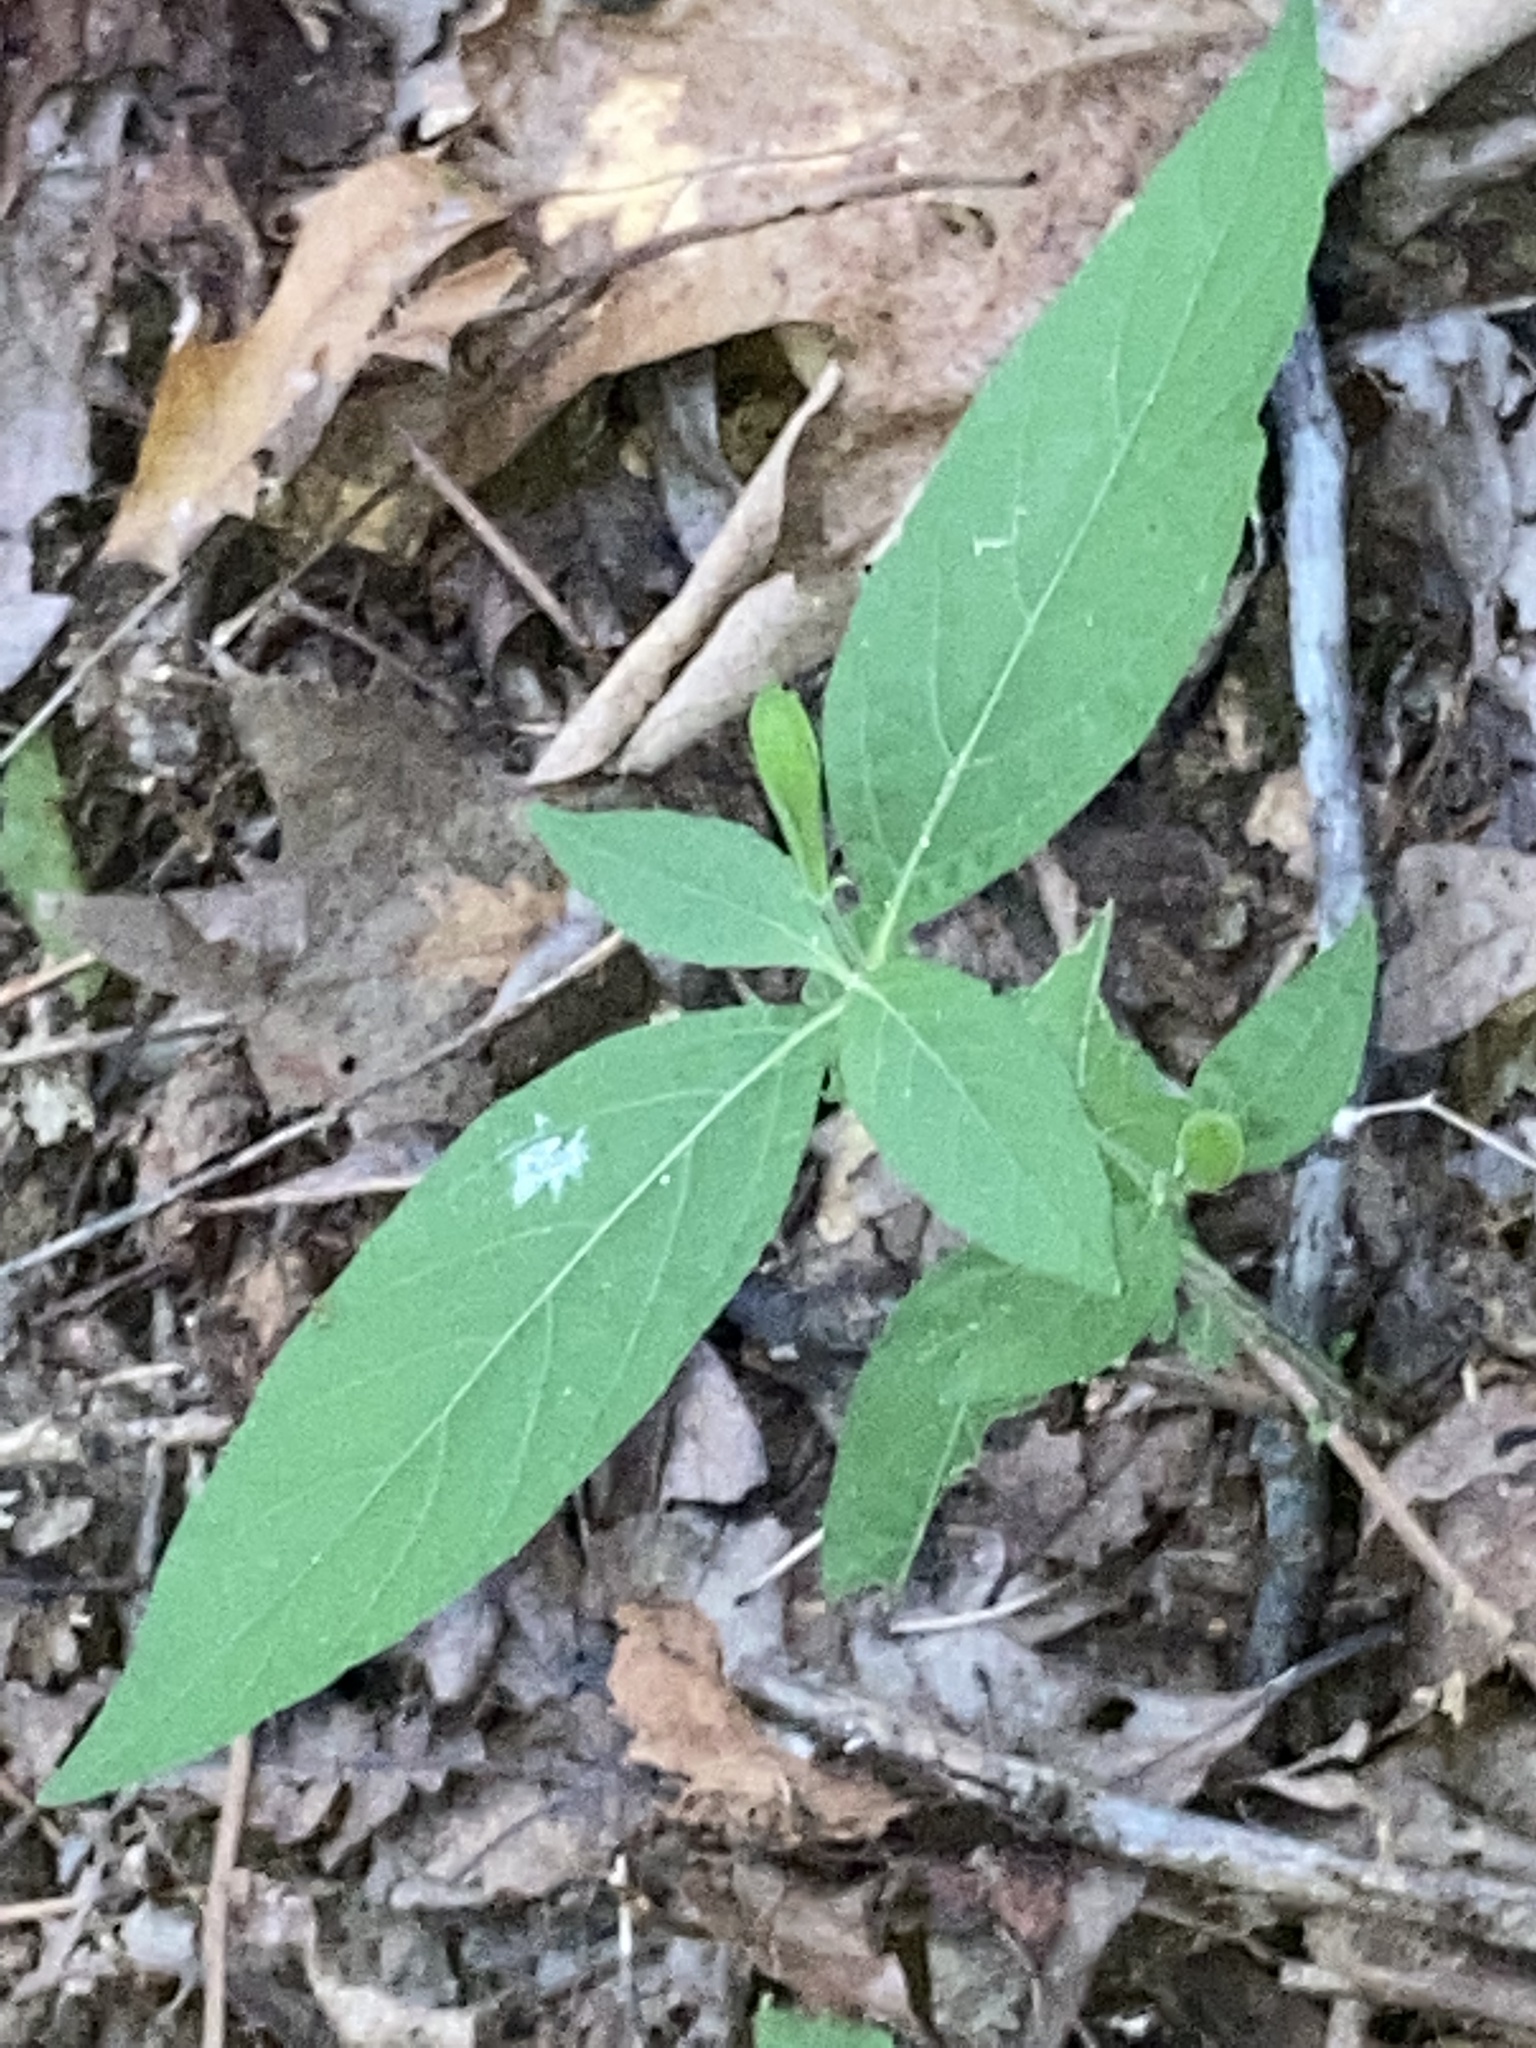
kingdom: Plantae
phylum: Tracheophyta
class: Magnoliopsida
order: Lamiales
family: Acanthaceae
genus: Ruellia
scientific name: Ruellia pedunculata
